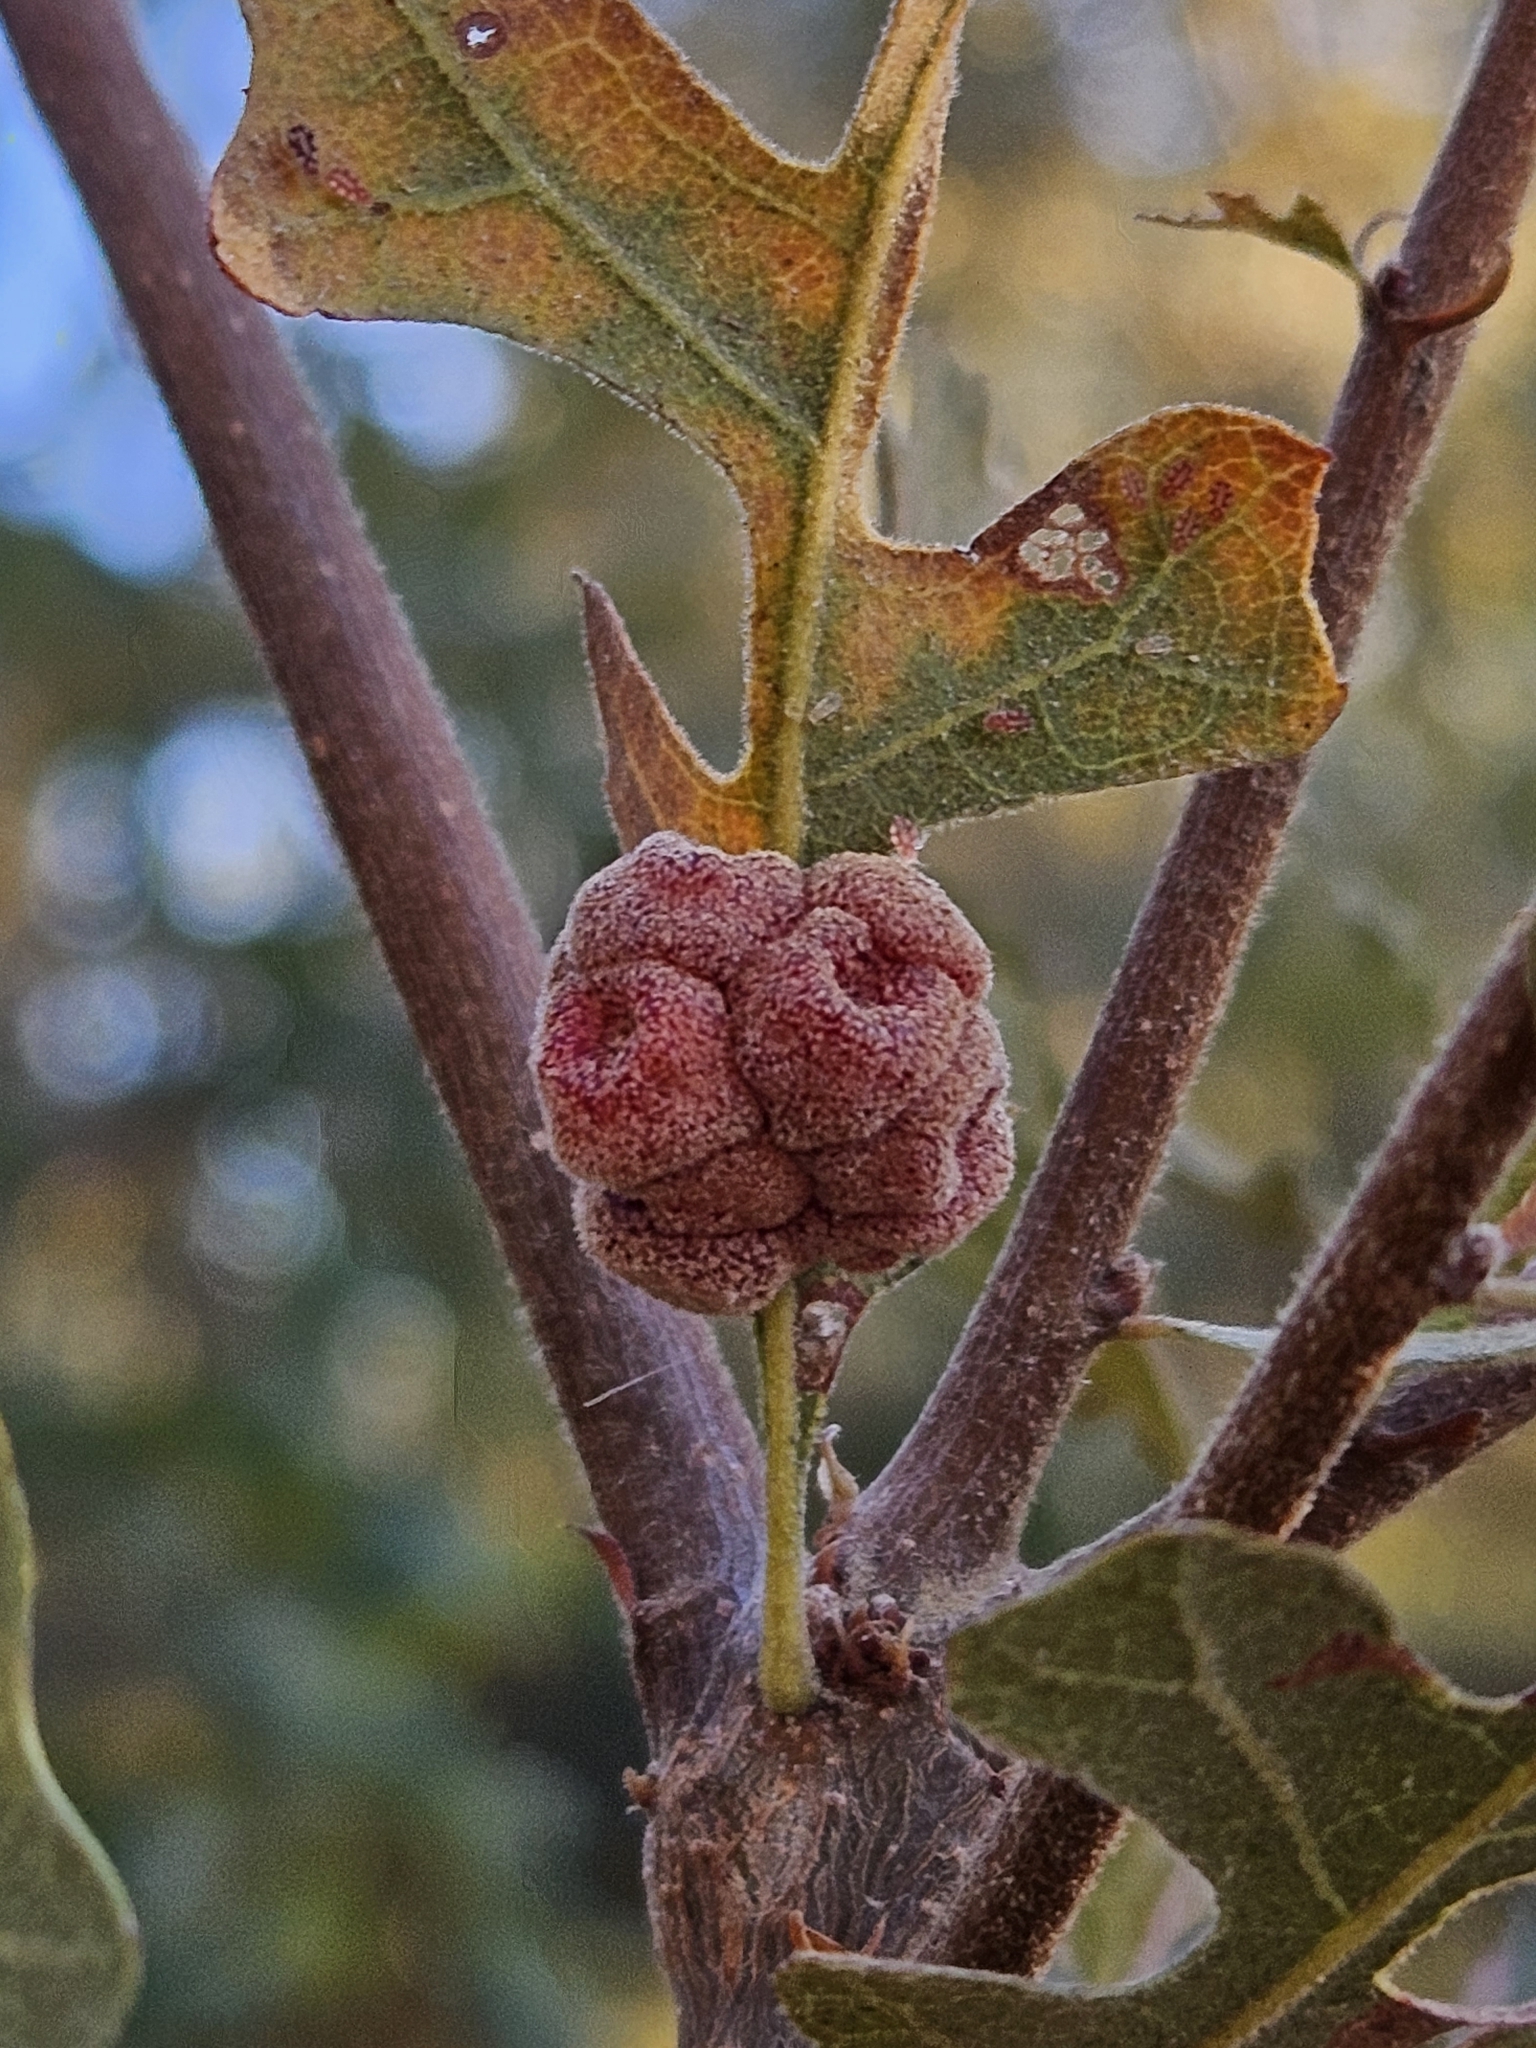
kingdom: Animalia
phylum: Arthropoda
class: Insecta
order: Hymenoptera
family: Cynipidae
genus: Andricus
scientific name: Andricus
